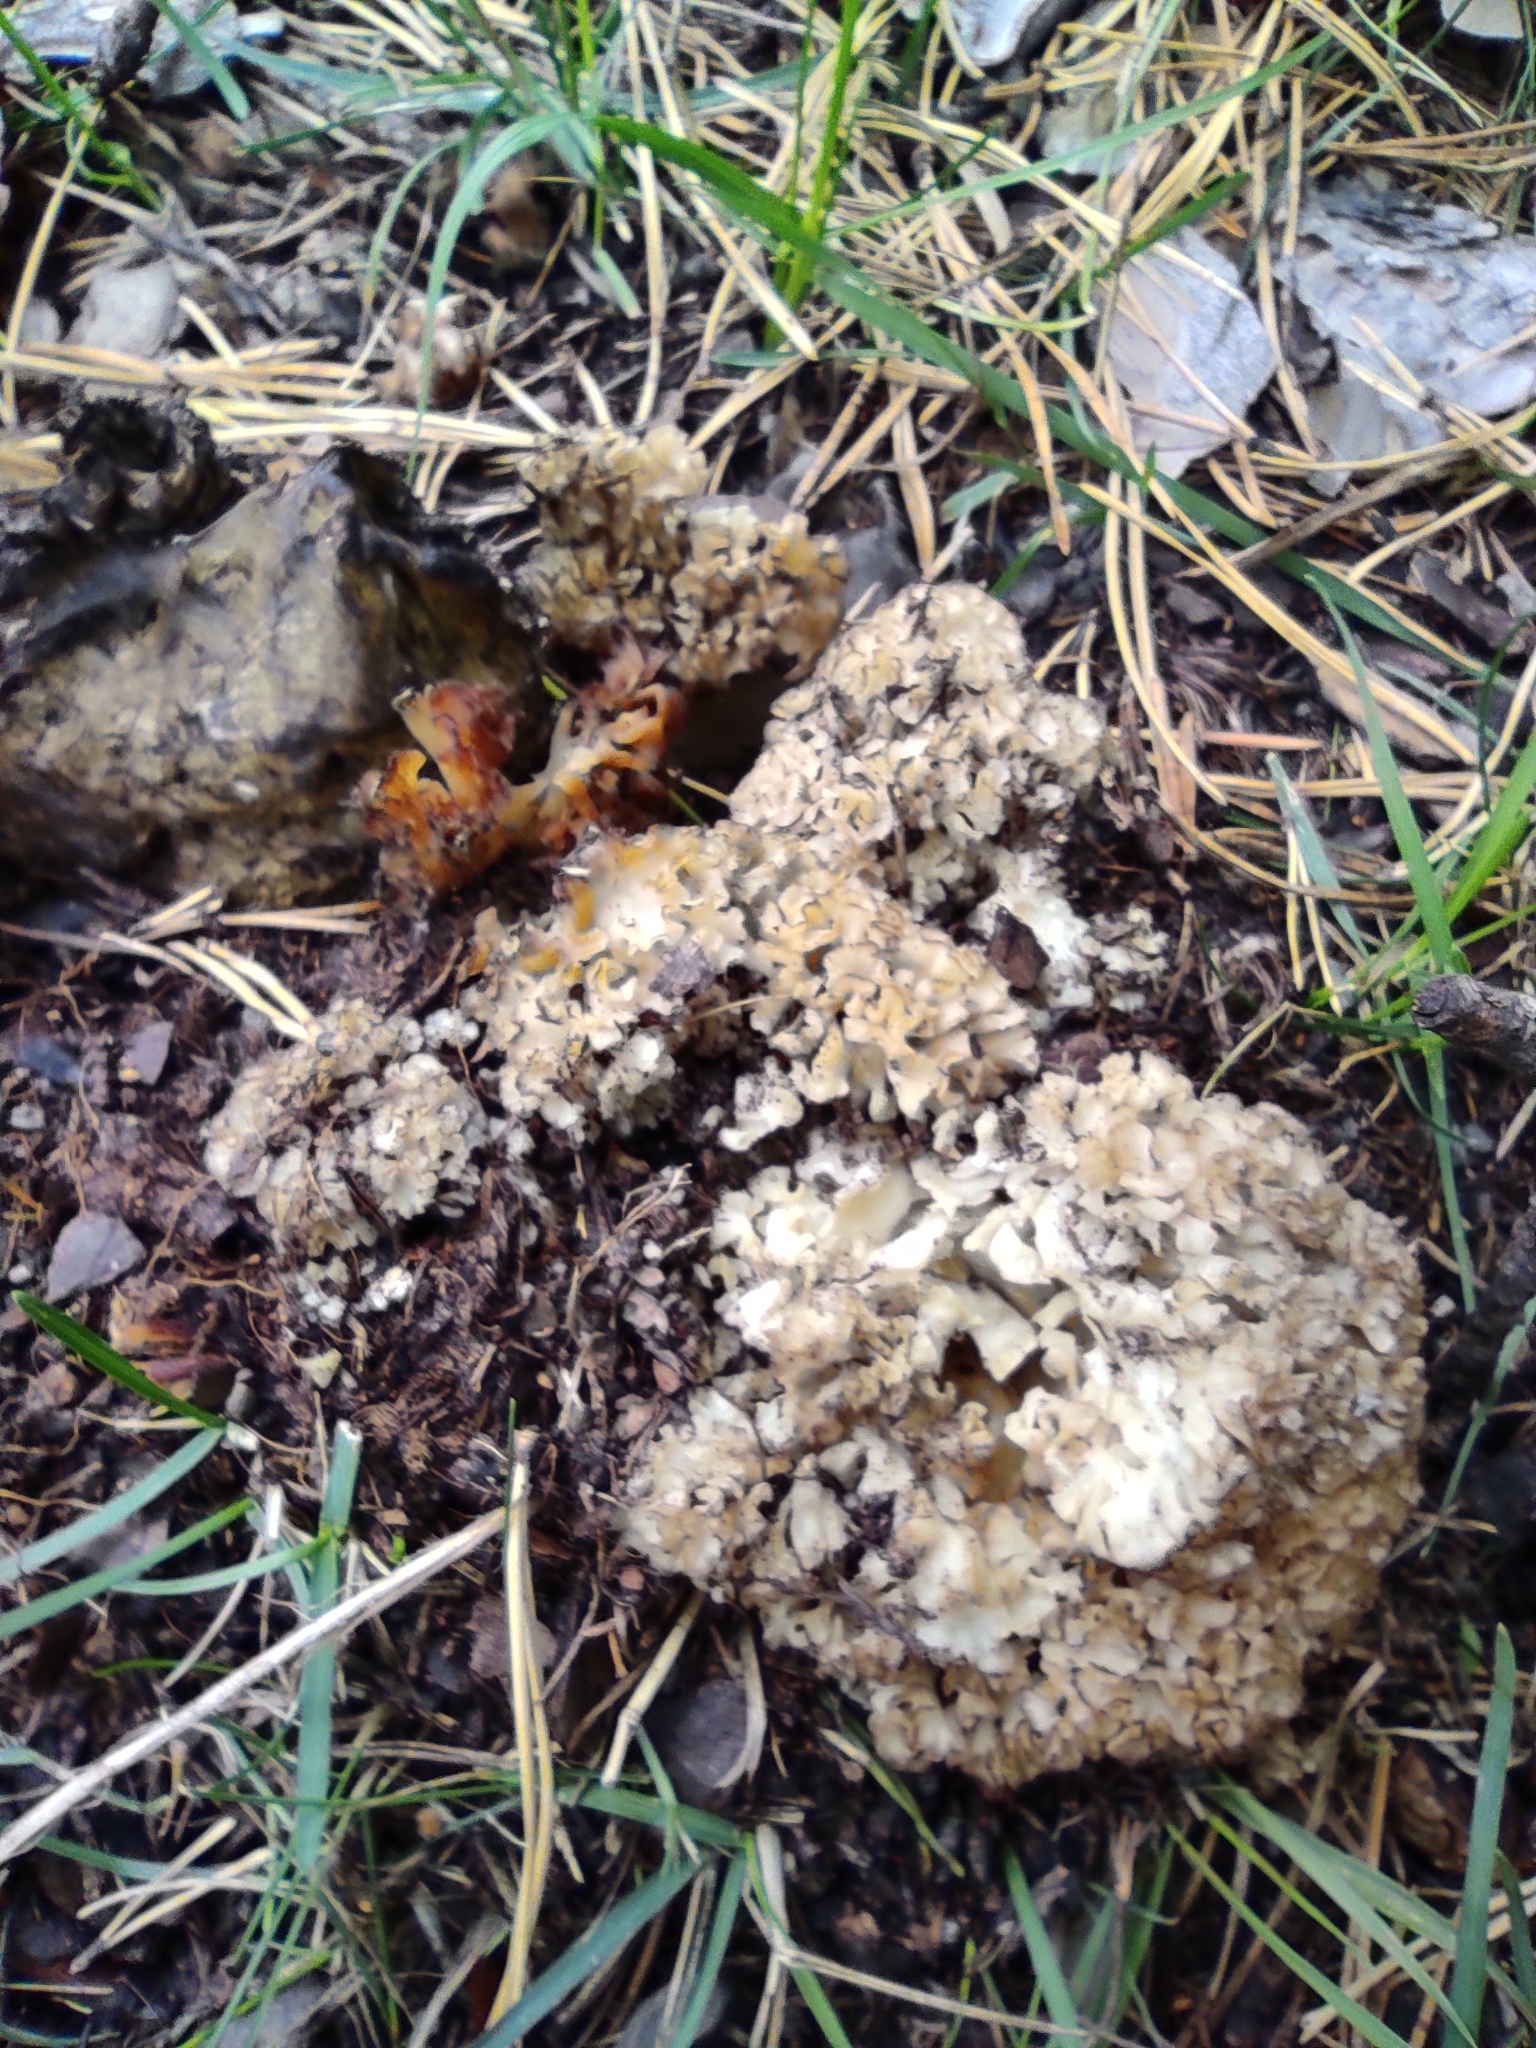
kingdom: Fungi
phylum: Basidiomycota
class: Agaricomycetes
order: Polyporales
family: Sparassidaceae
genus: Sparassis
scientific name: Sparassis crispa
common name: Brain fungus
